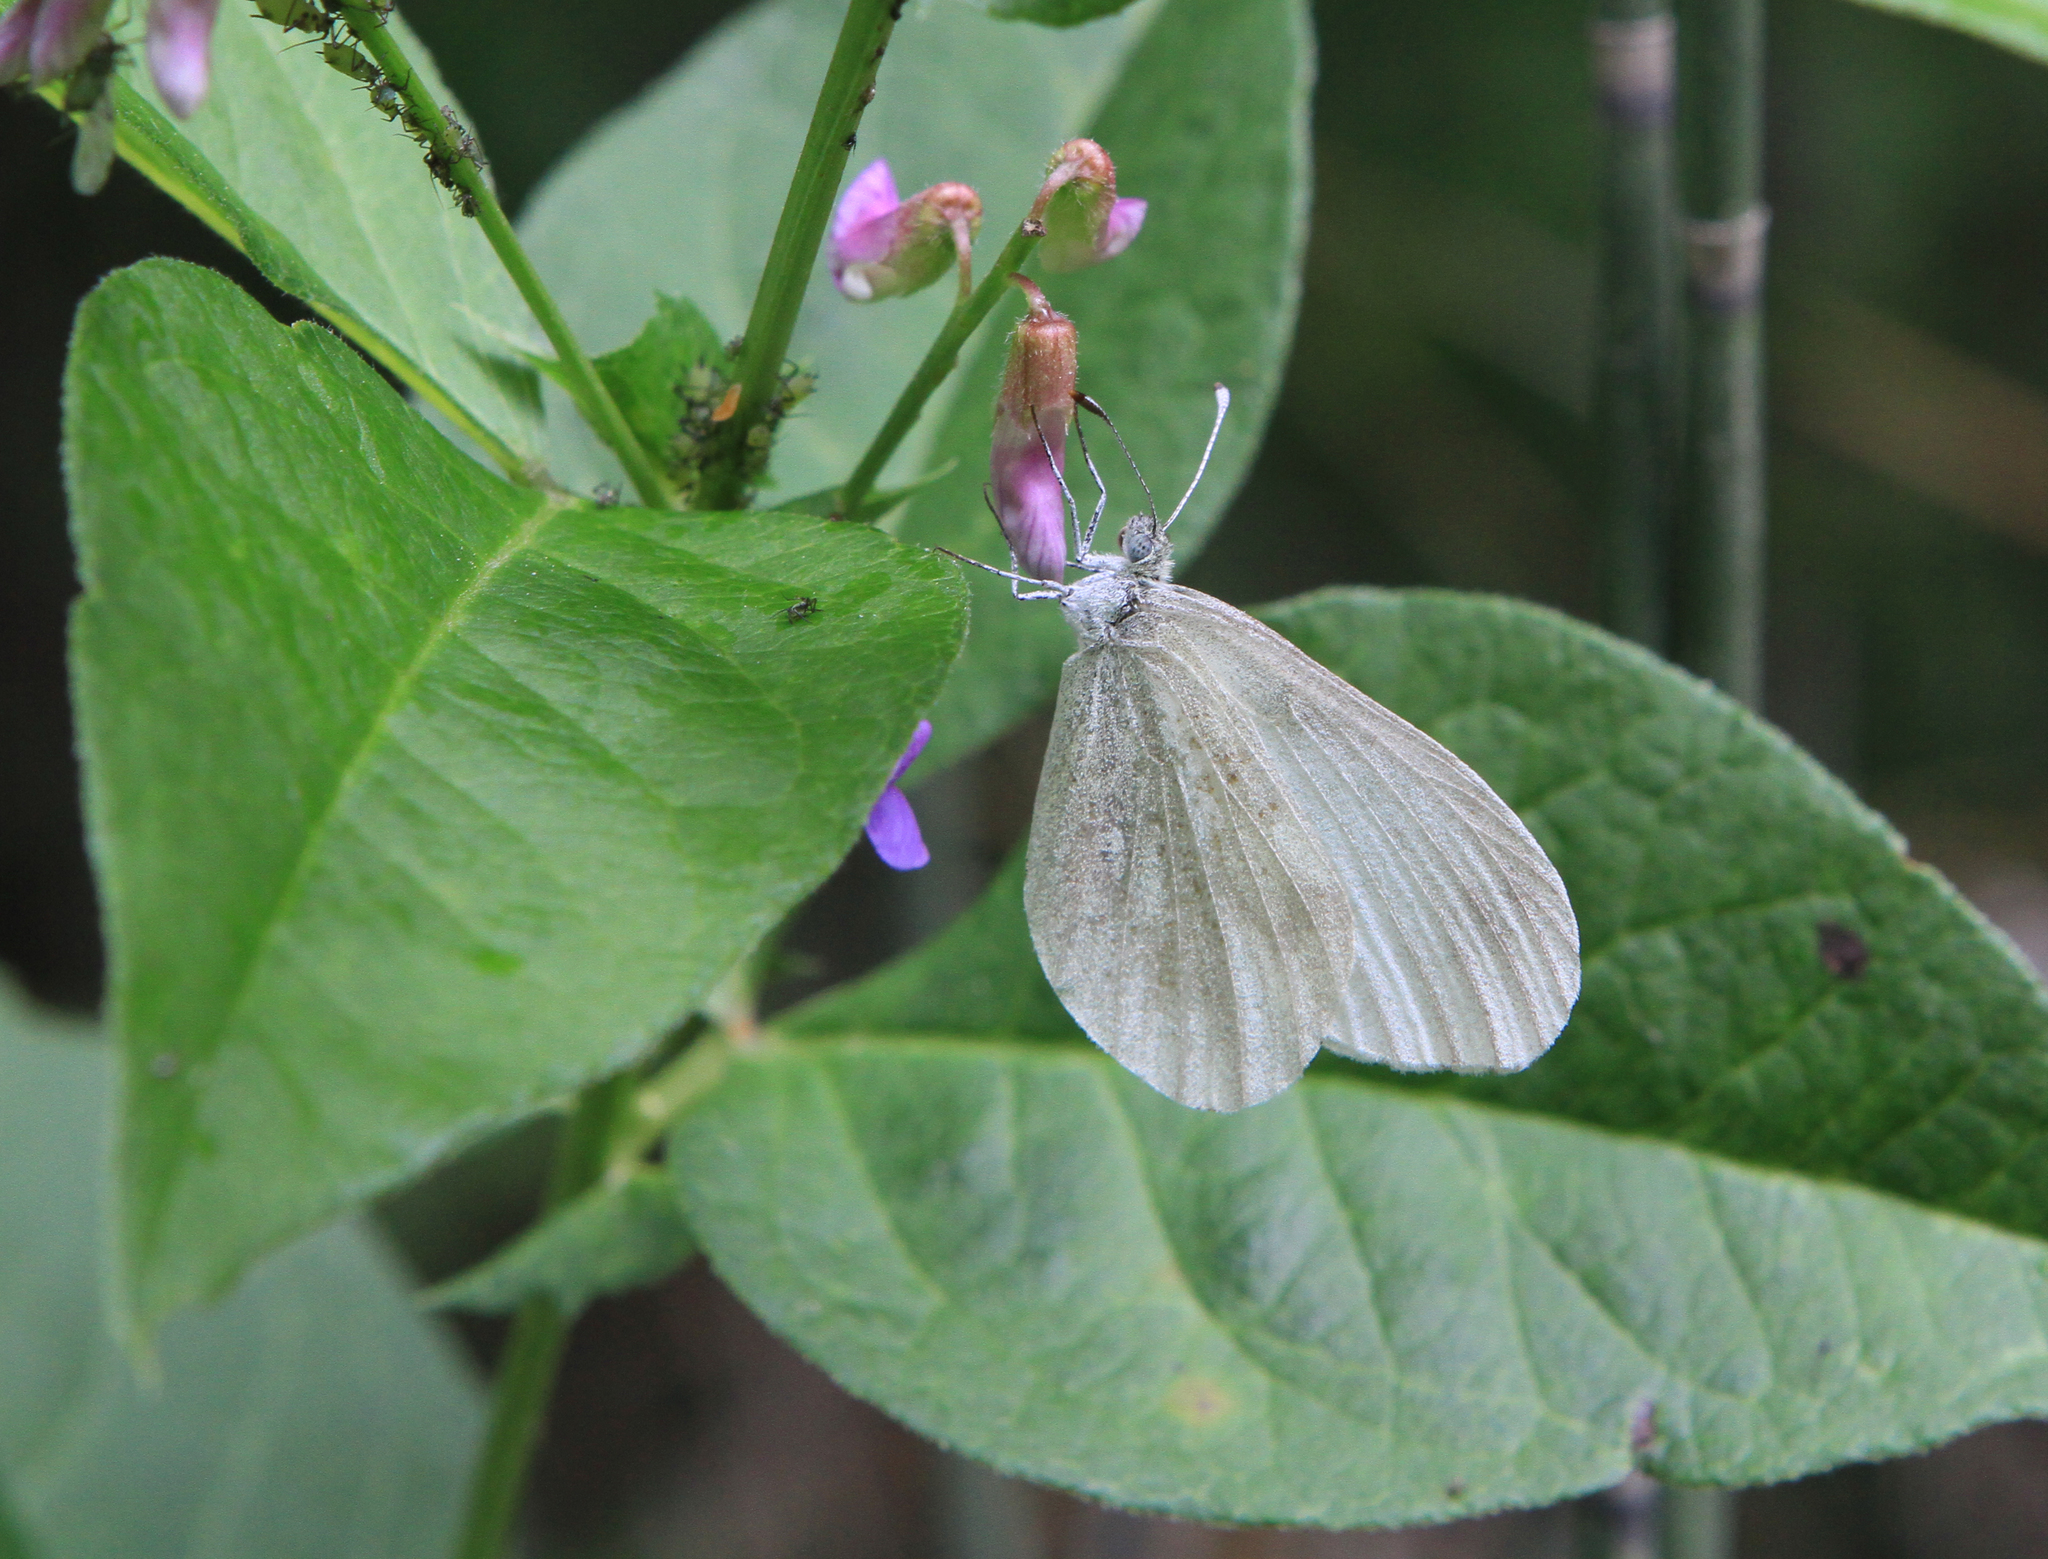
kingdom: Plantae
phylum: Tracheophyta
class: Magnoliopsida
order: Fabales
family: Fabaceae
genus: Vicia
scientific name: Vicia unijuga
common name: Two-leaf vetch
